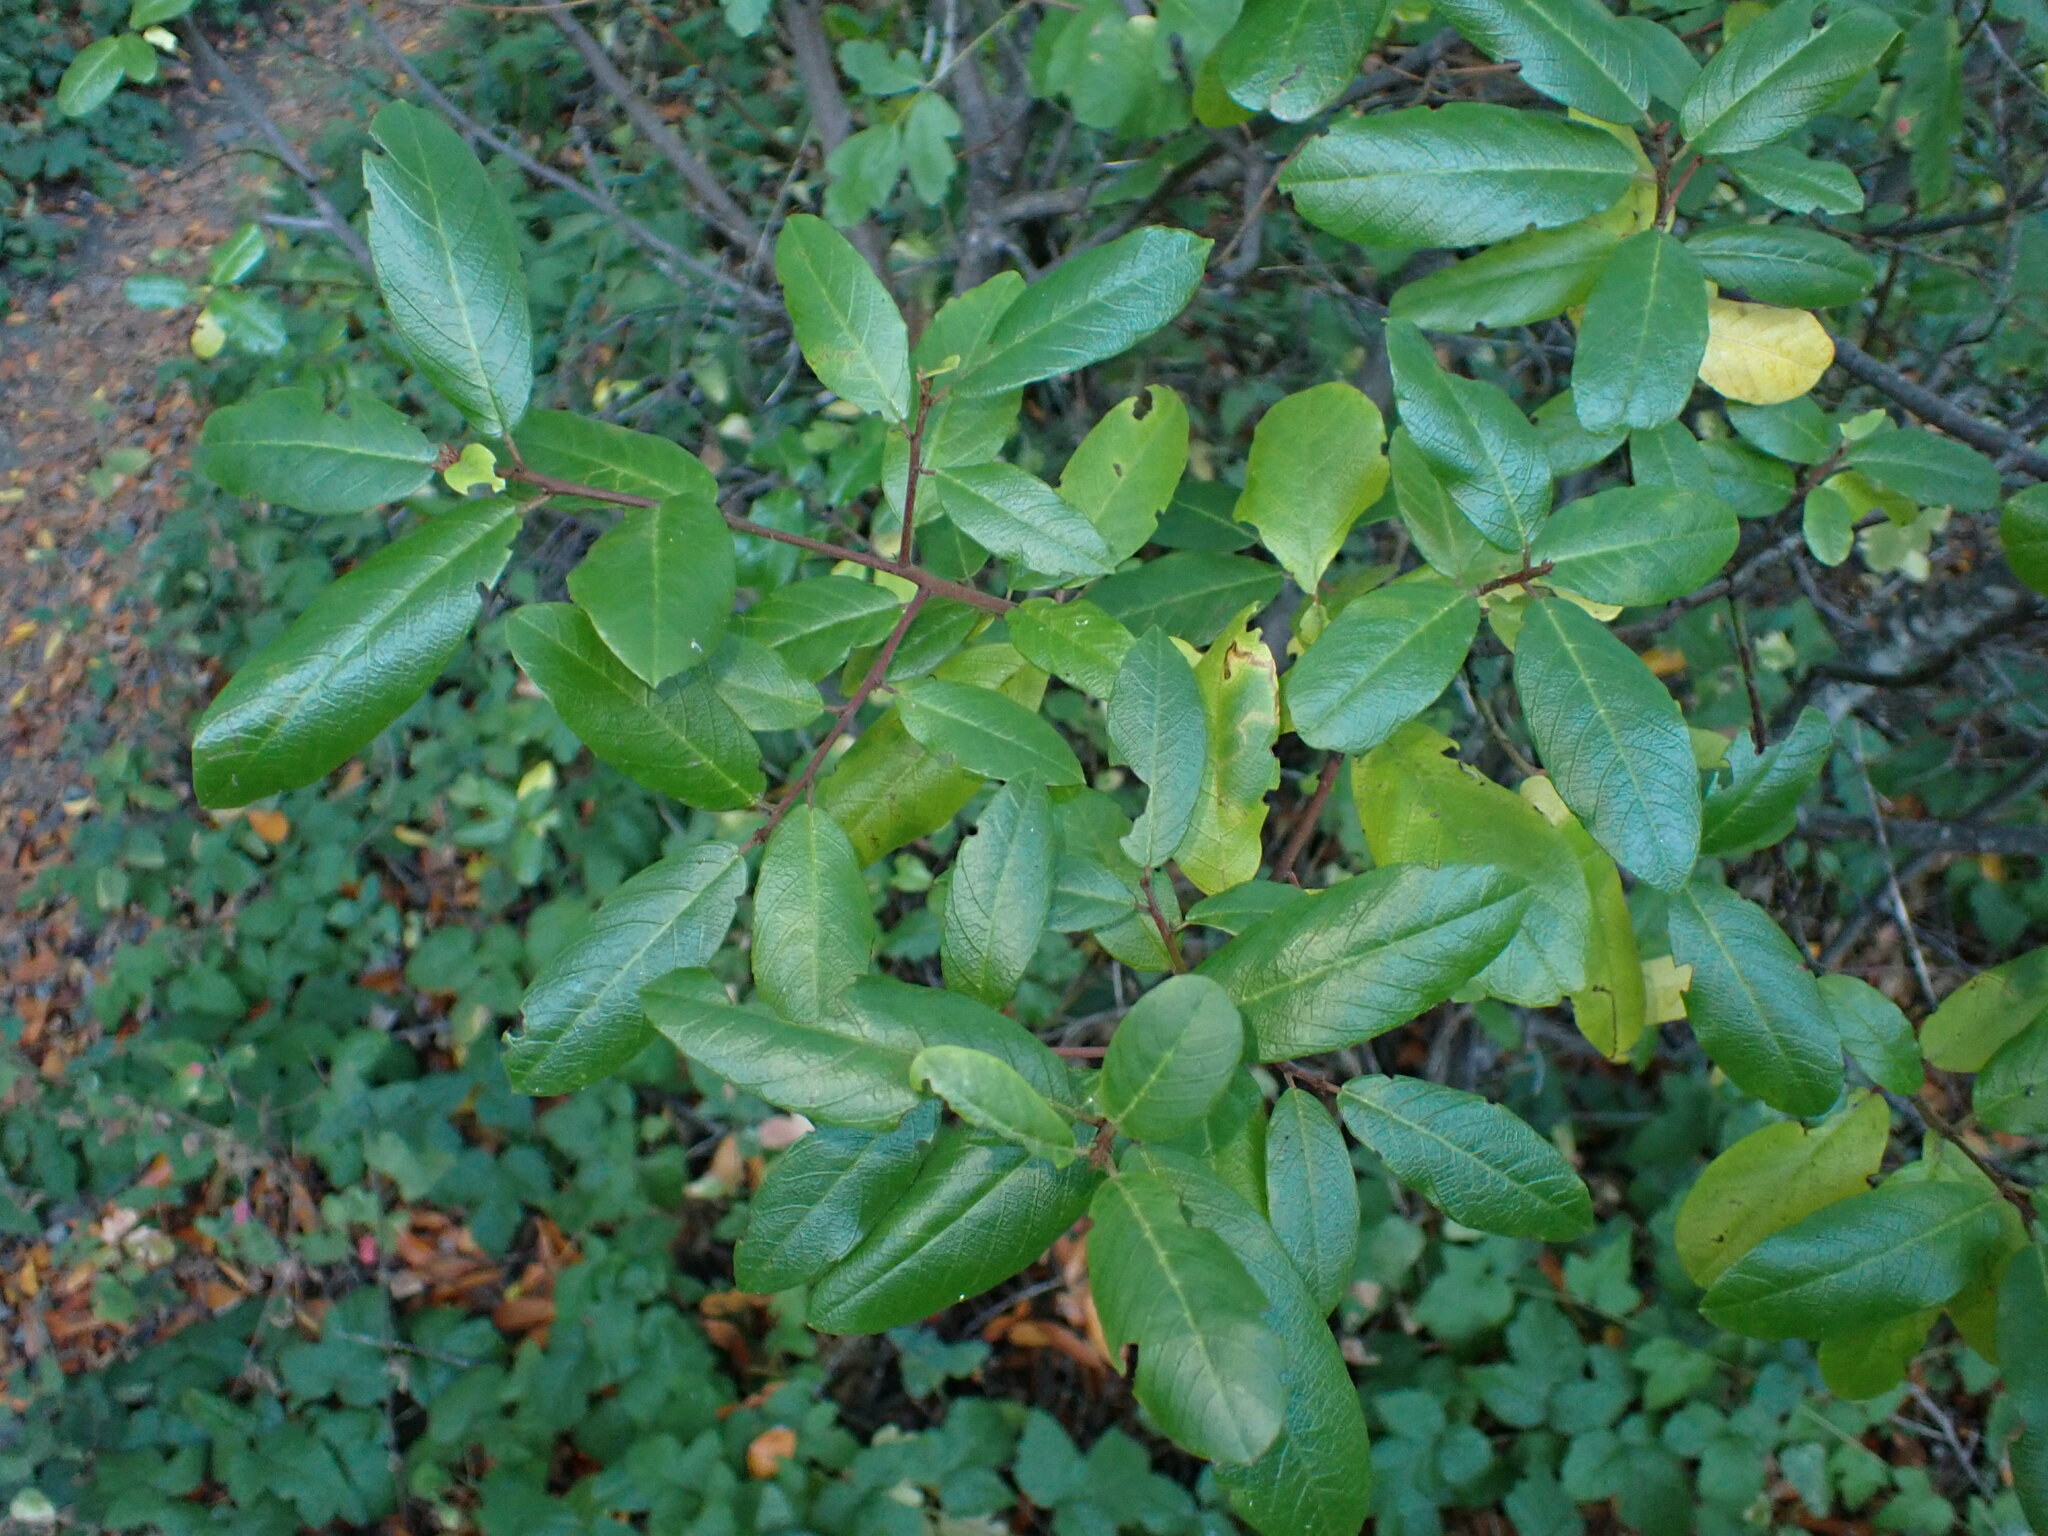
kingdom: Plantae
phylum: Tracheophyta
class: Magnoliopsida
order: Rosales
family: Rhamnaceae
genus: Frangula
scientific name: Frangula californica
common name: California buckthorn
